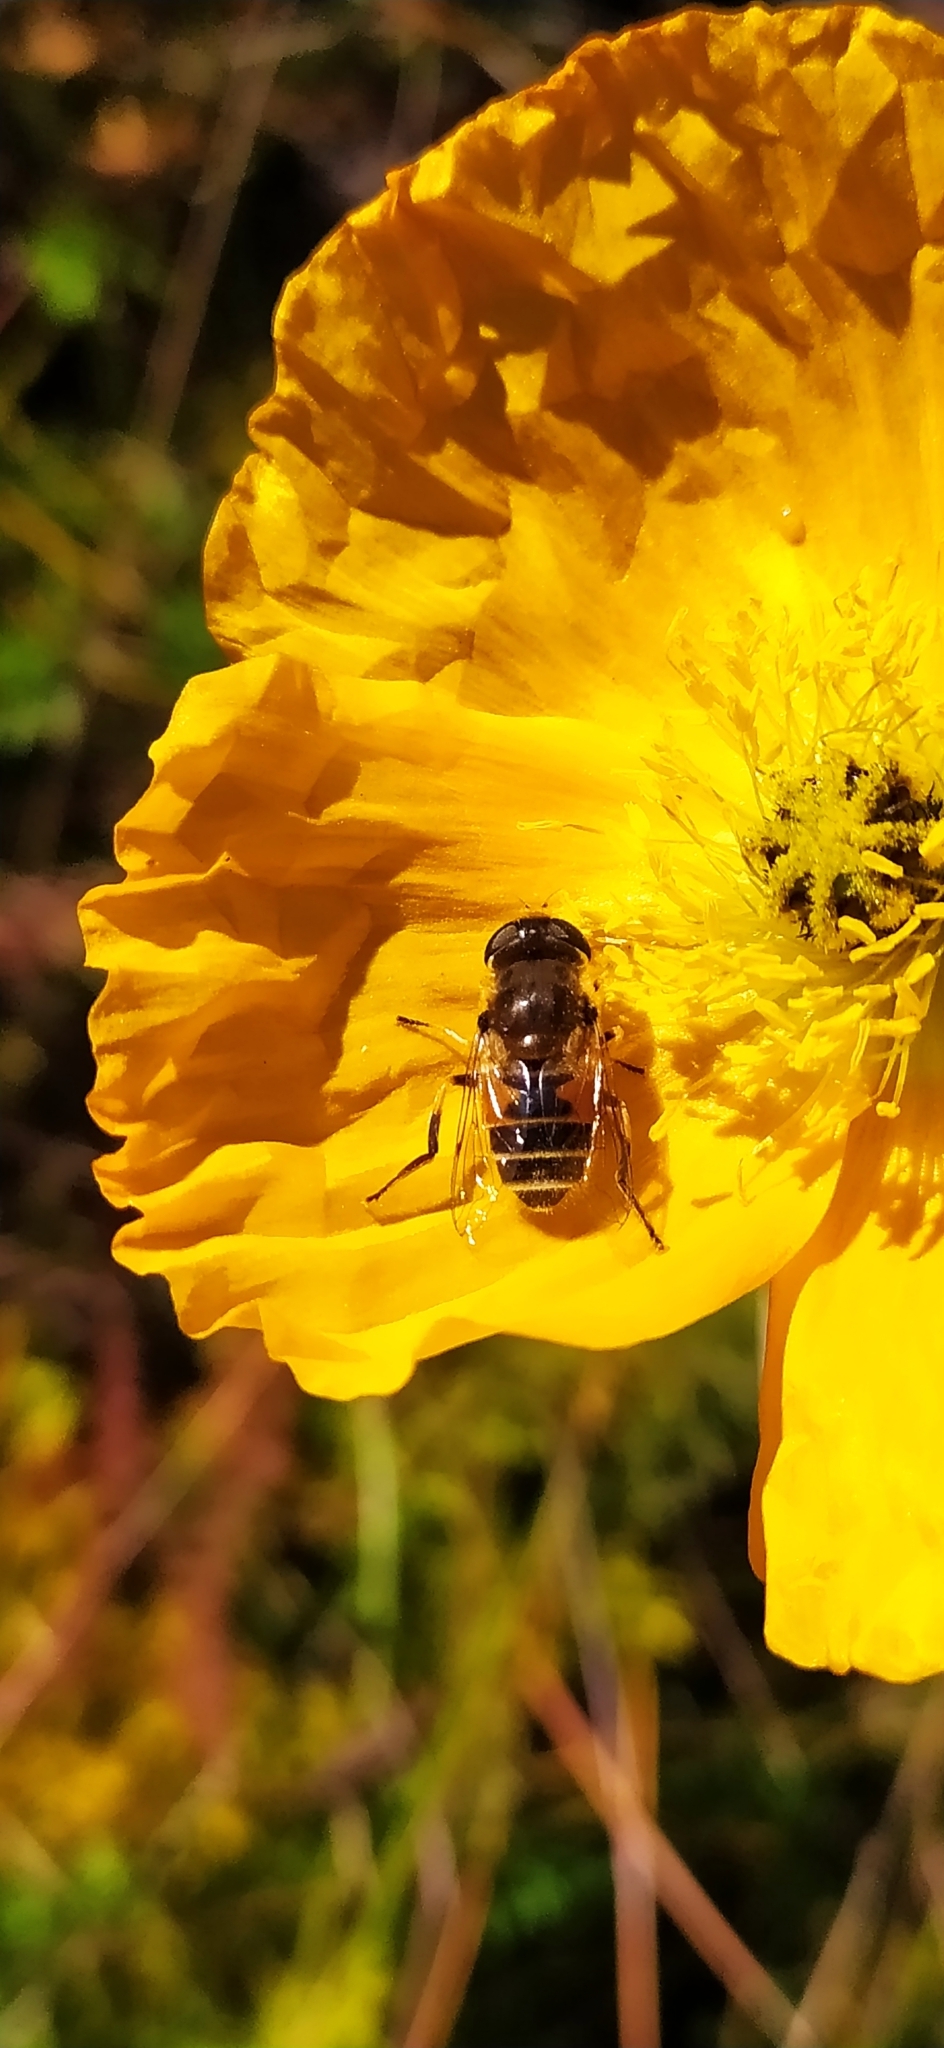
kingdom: Animalia
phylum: Arthropoda
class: Insecta
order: Diptera
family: Syrphidae
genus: Eristalis
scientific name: Eristalis arbustorum
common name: Hover fly
